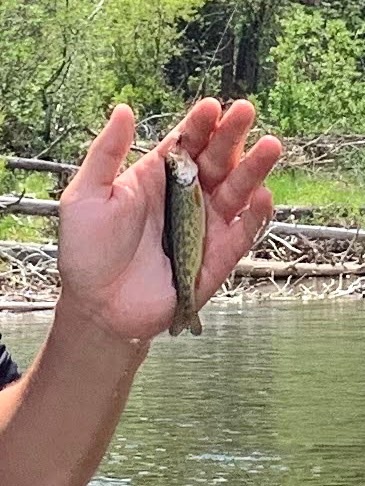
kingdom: Animalia
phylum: Chordata
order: Salmoniformes
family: Salmonidae
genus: Oncorhynchus
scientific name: Oncorhynchus mykiss
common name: Rainbow trout
